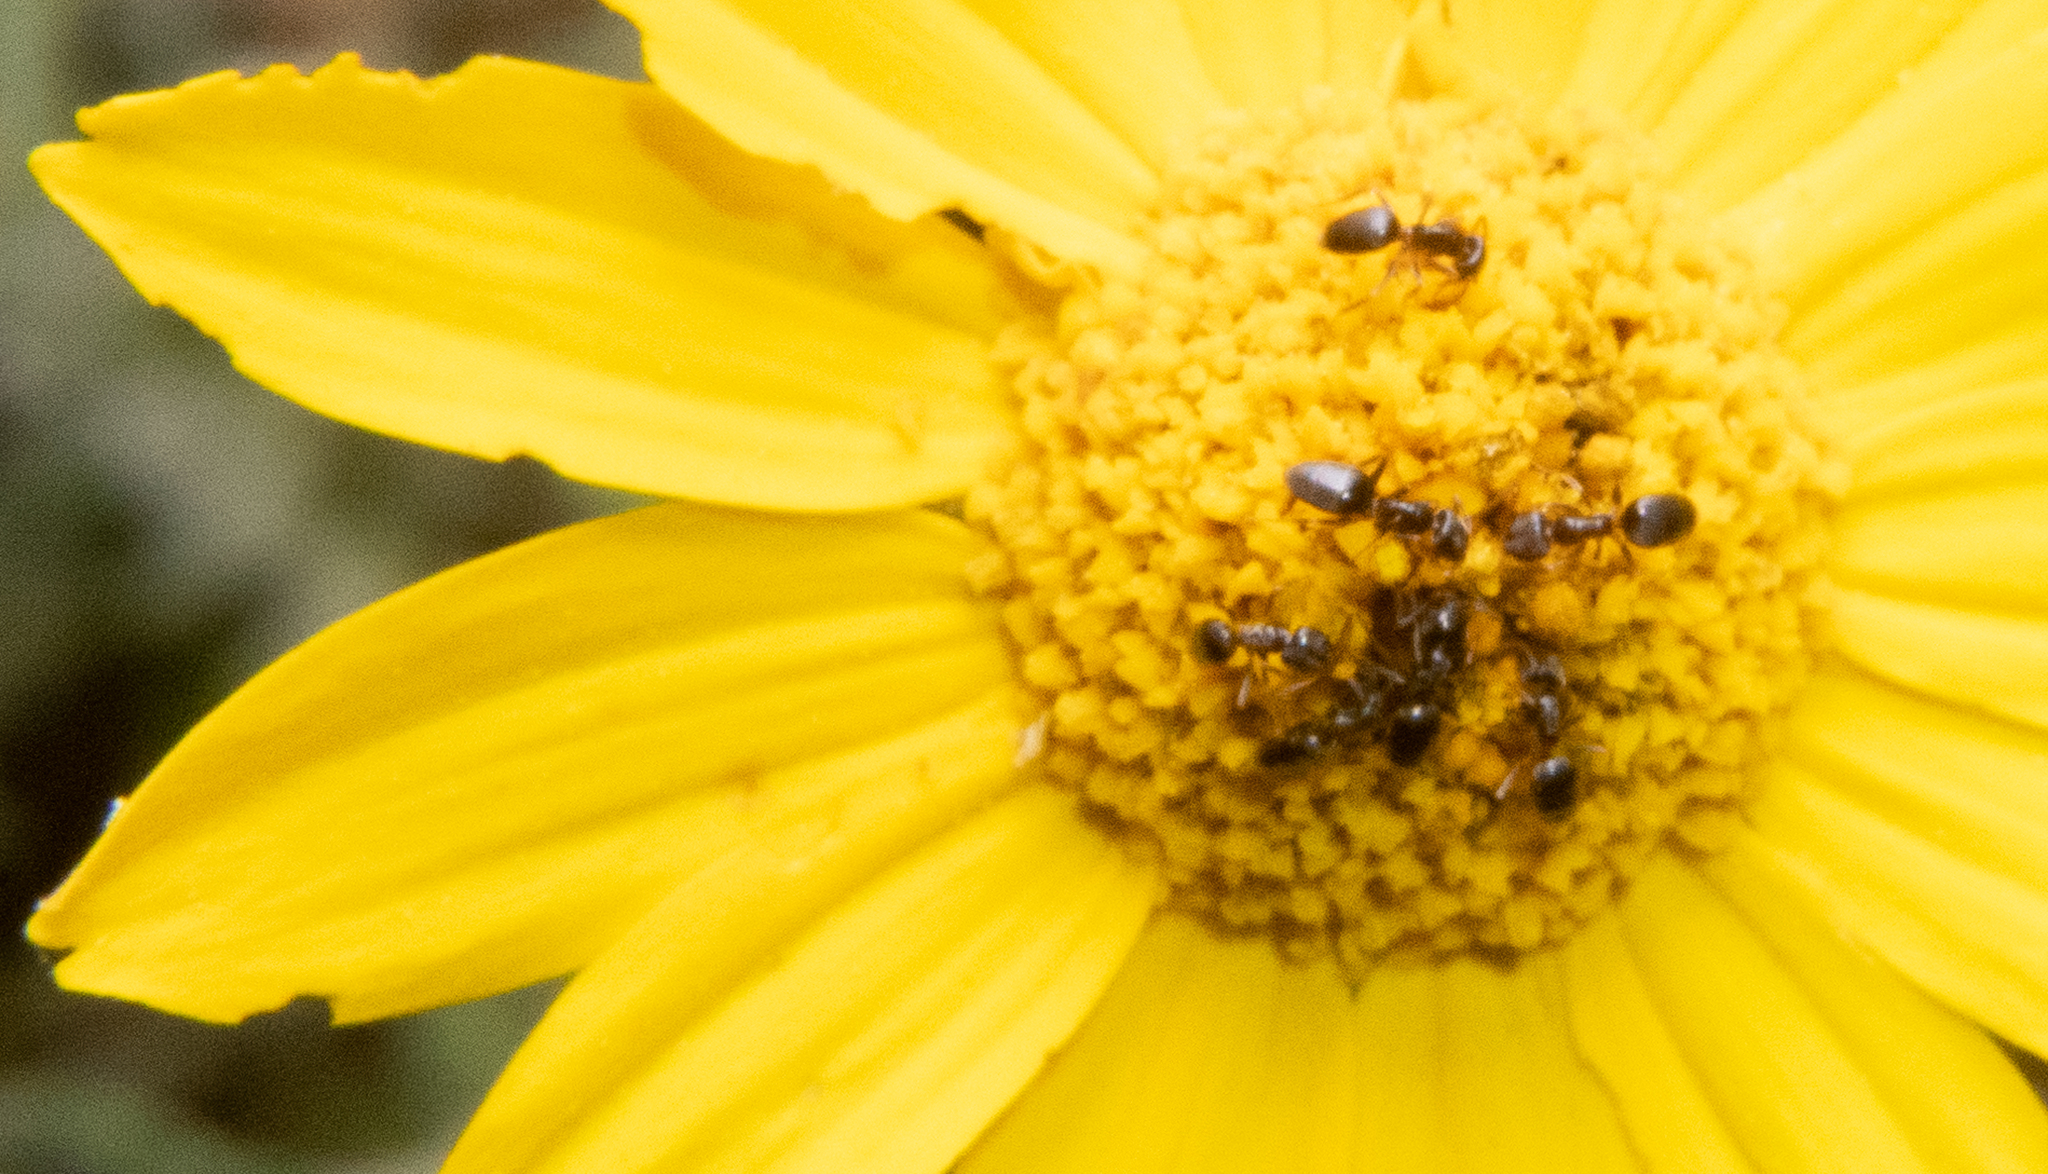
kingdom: Animalia
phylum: Arthropoda
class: Insecta
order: Hymenoptera
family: Formicidae
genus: Tapinoma
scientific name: Tapinoma sessile
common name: Odorous house ant
